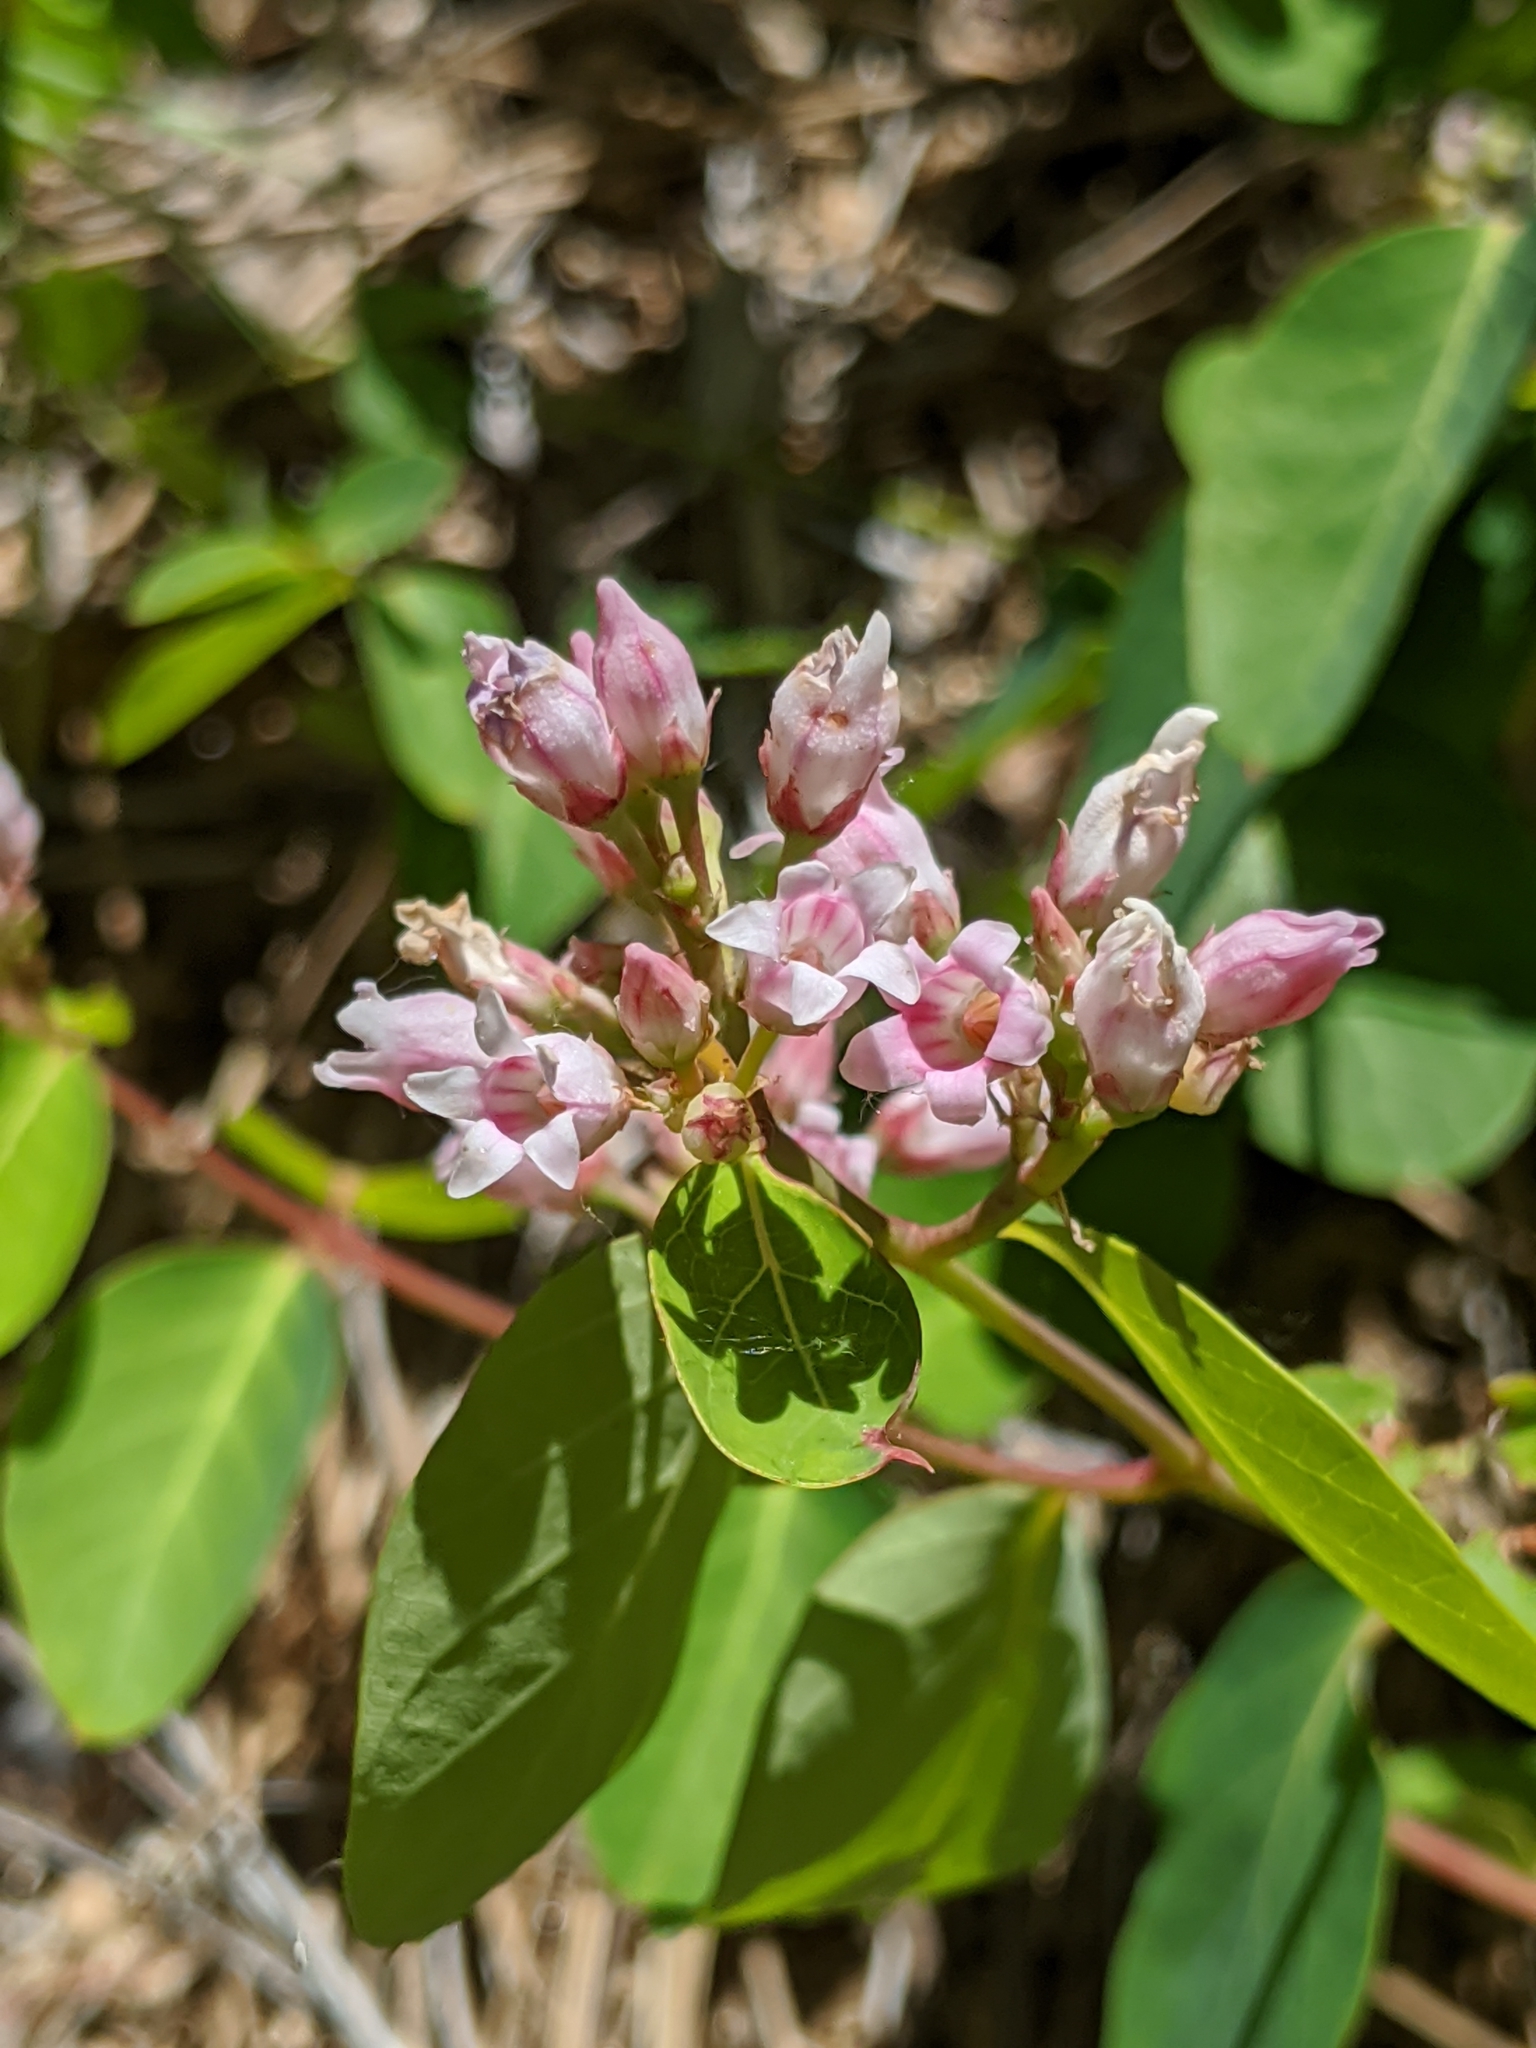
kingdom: Plantae
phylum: Tracheophyta
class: Magnoliopsida
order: Gentianales
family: Apocynaceae
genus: Apocynum
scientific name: Apocynum androsaemifolium
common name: Spreading dogbane
